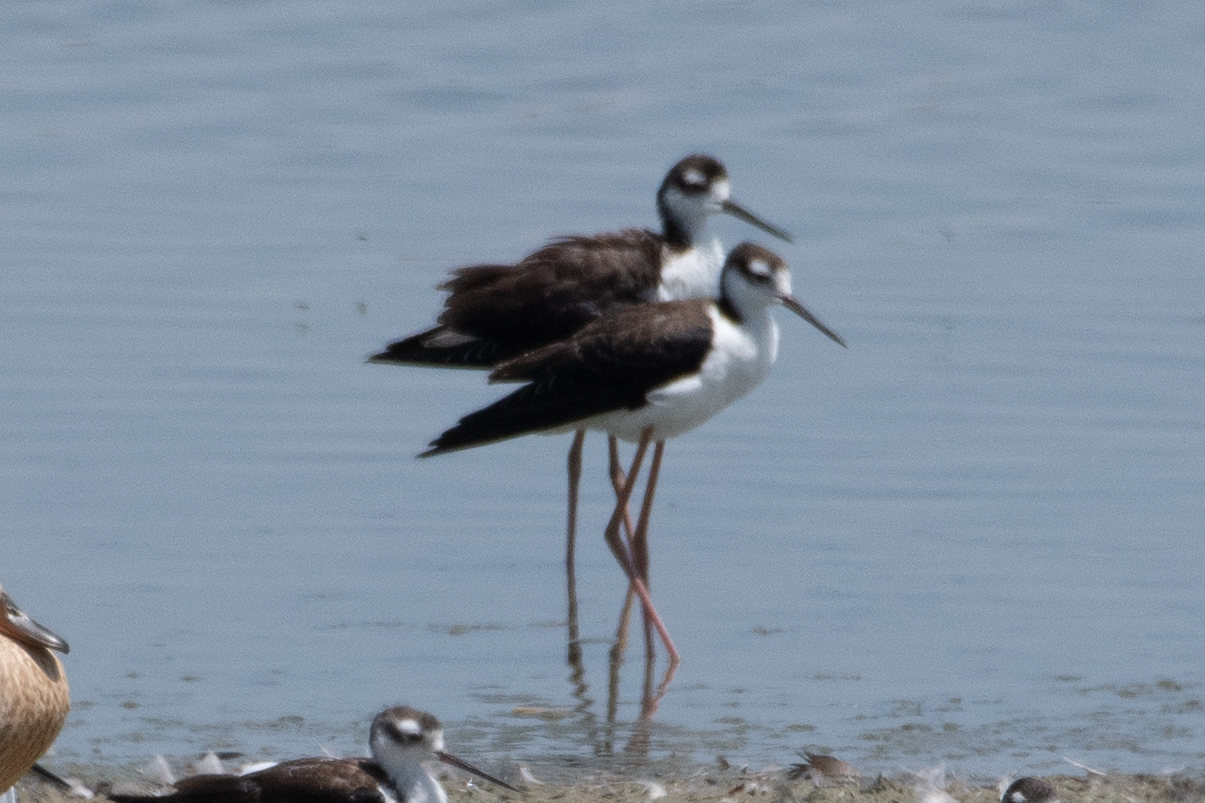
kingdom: Animalia
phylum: Chordata
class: Aves
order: Charadriiformes
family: Recurvirostridae
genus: Himantopus
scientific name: Himantopus mexicanus
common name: Black-necked stilt
